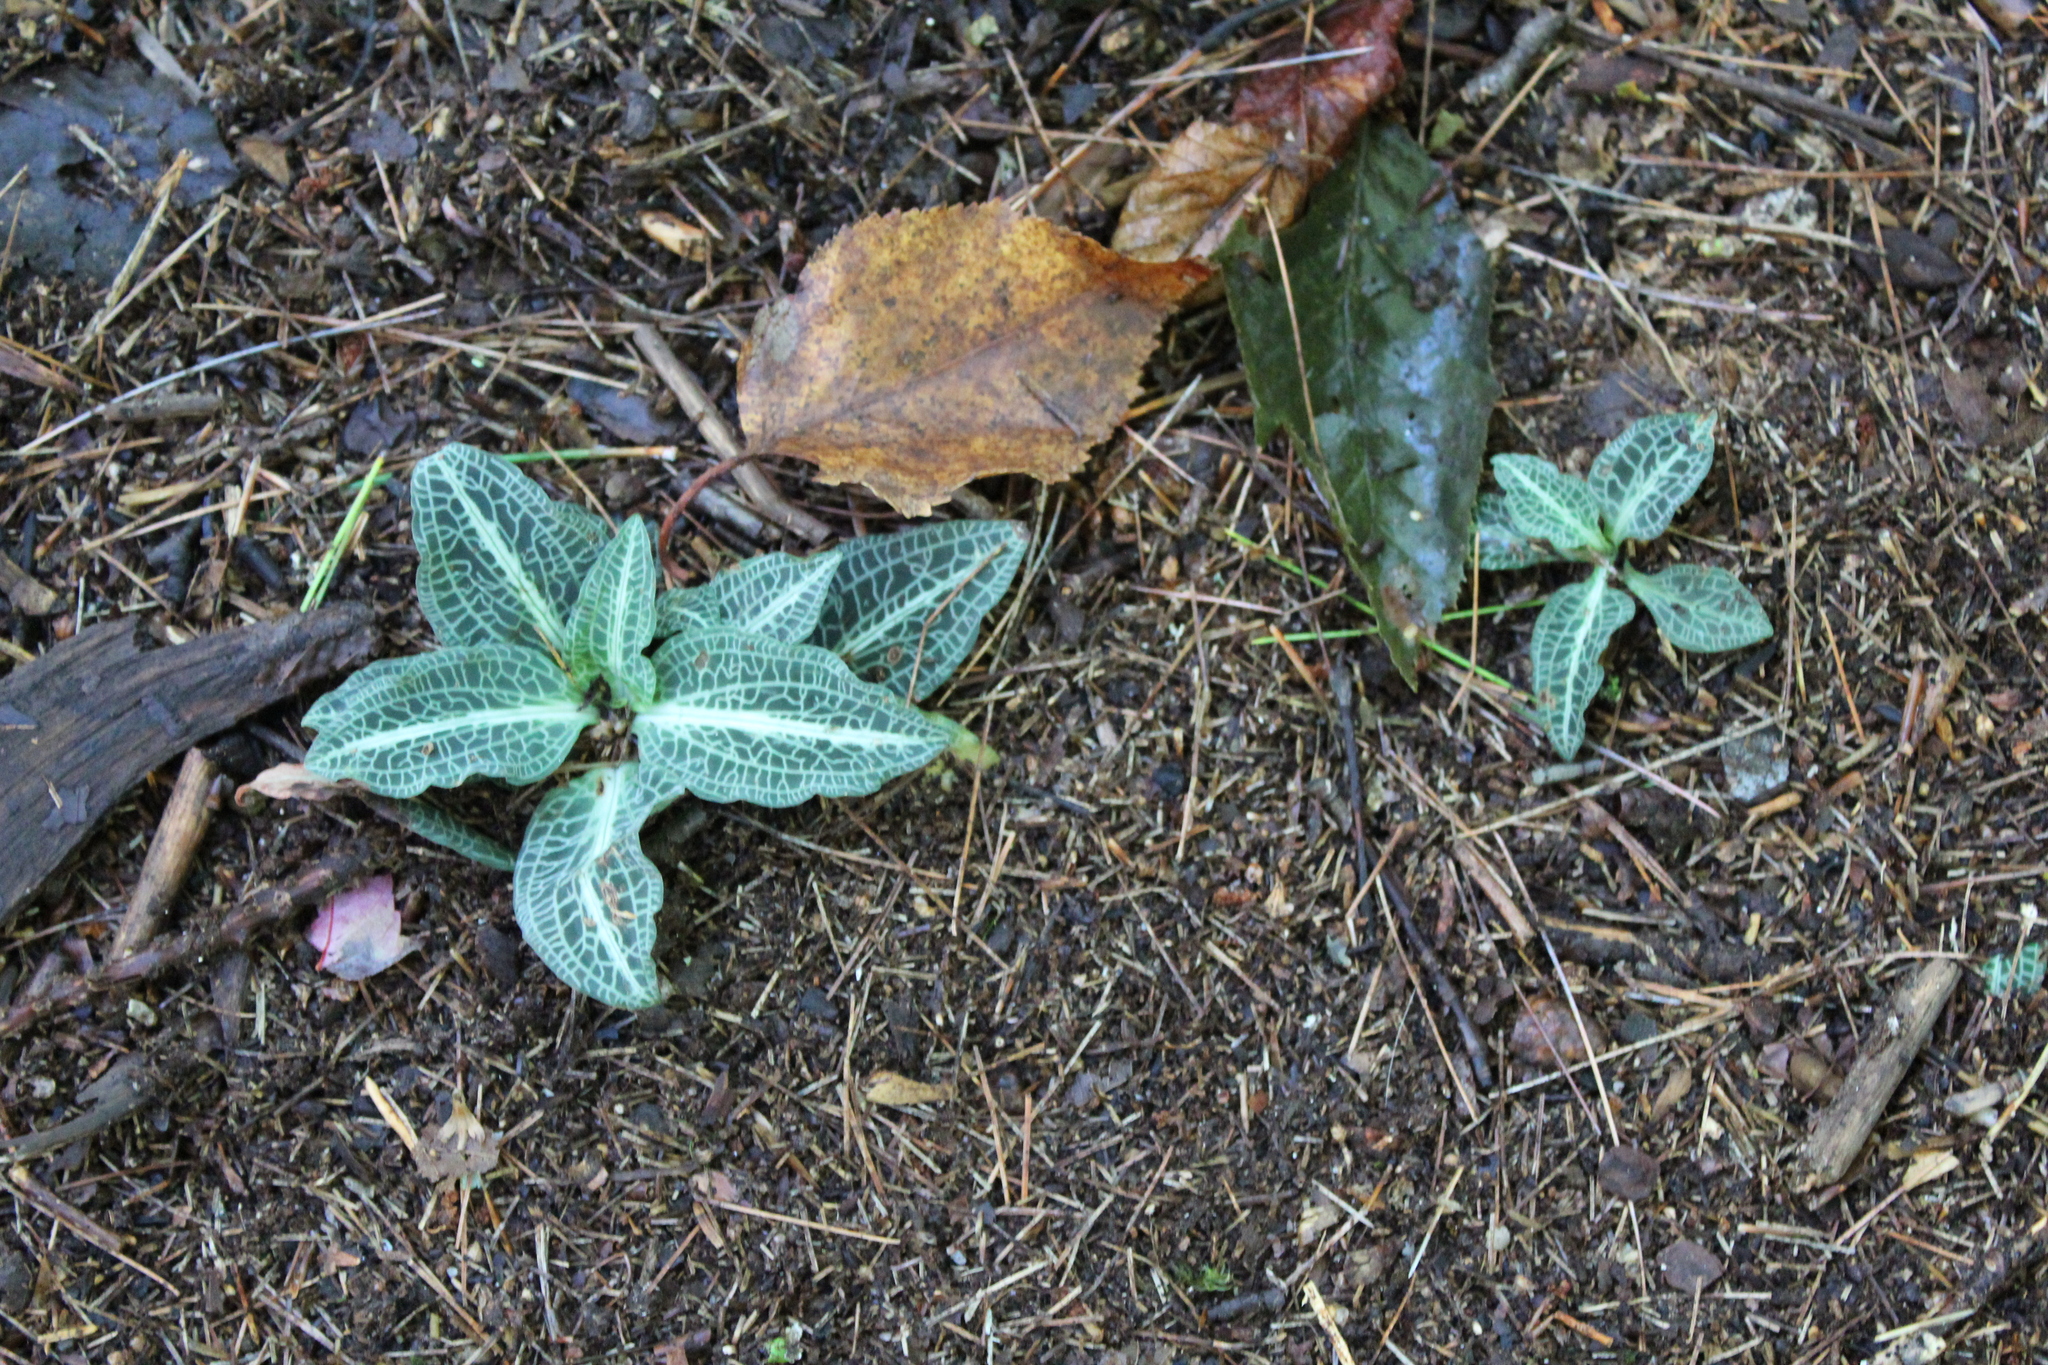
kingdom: Plantae
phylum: Tracheophyta
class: Liliopsida
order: Asparagales
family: Orchidaceae
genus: Goodyera
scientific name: Goodyera pubescens
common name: Downy rattlesnake-plantain
